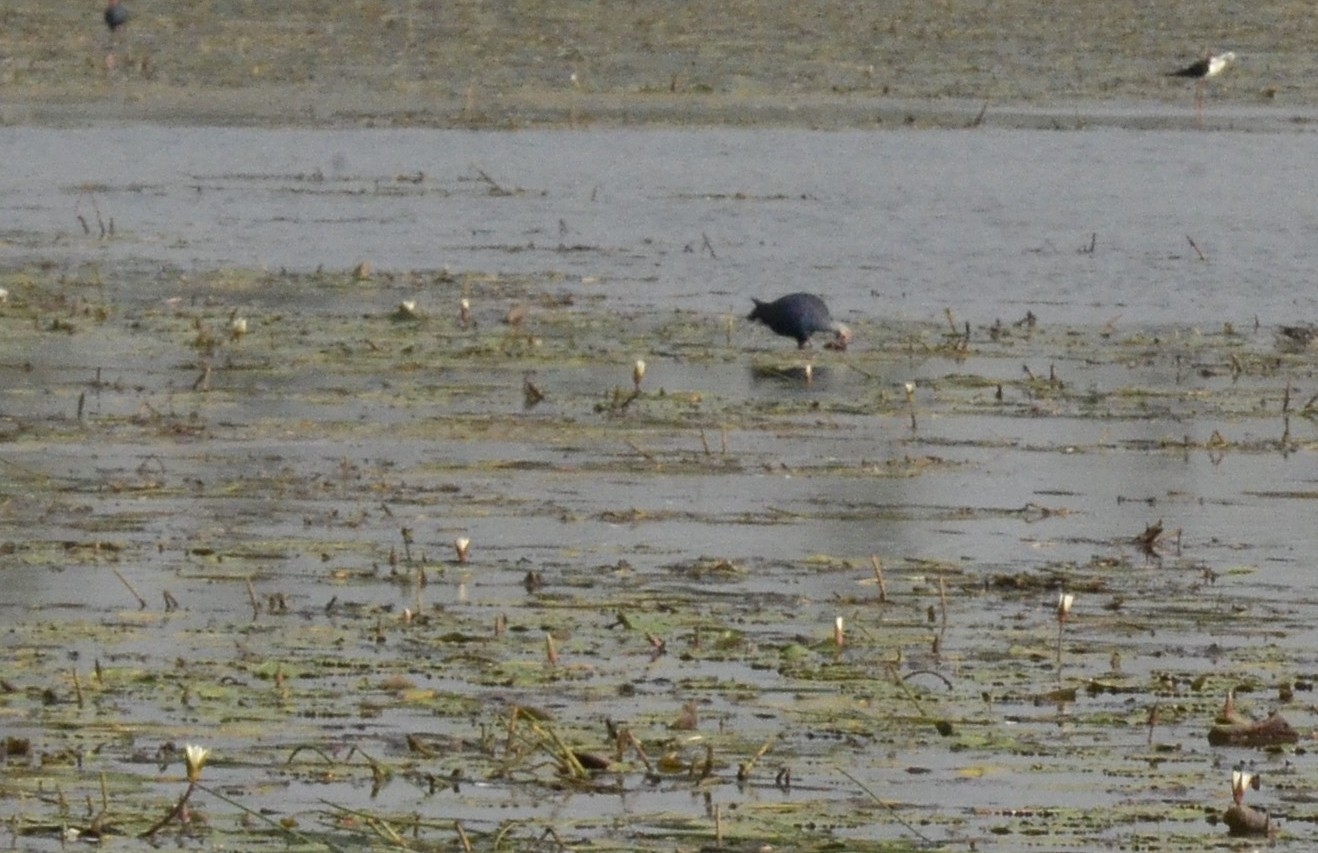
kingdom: Animalia
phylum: Chordata
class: Aves
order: Gruiformes
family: Rallidae
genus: Porphyrio
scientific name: Porphyrio porphyrio
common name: Purple swamphen
